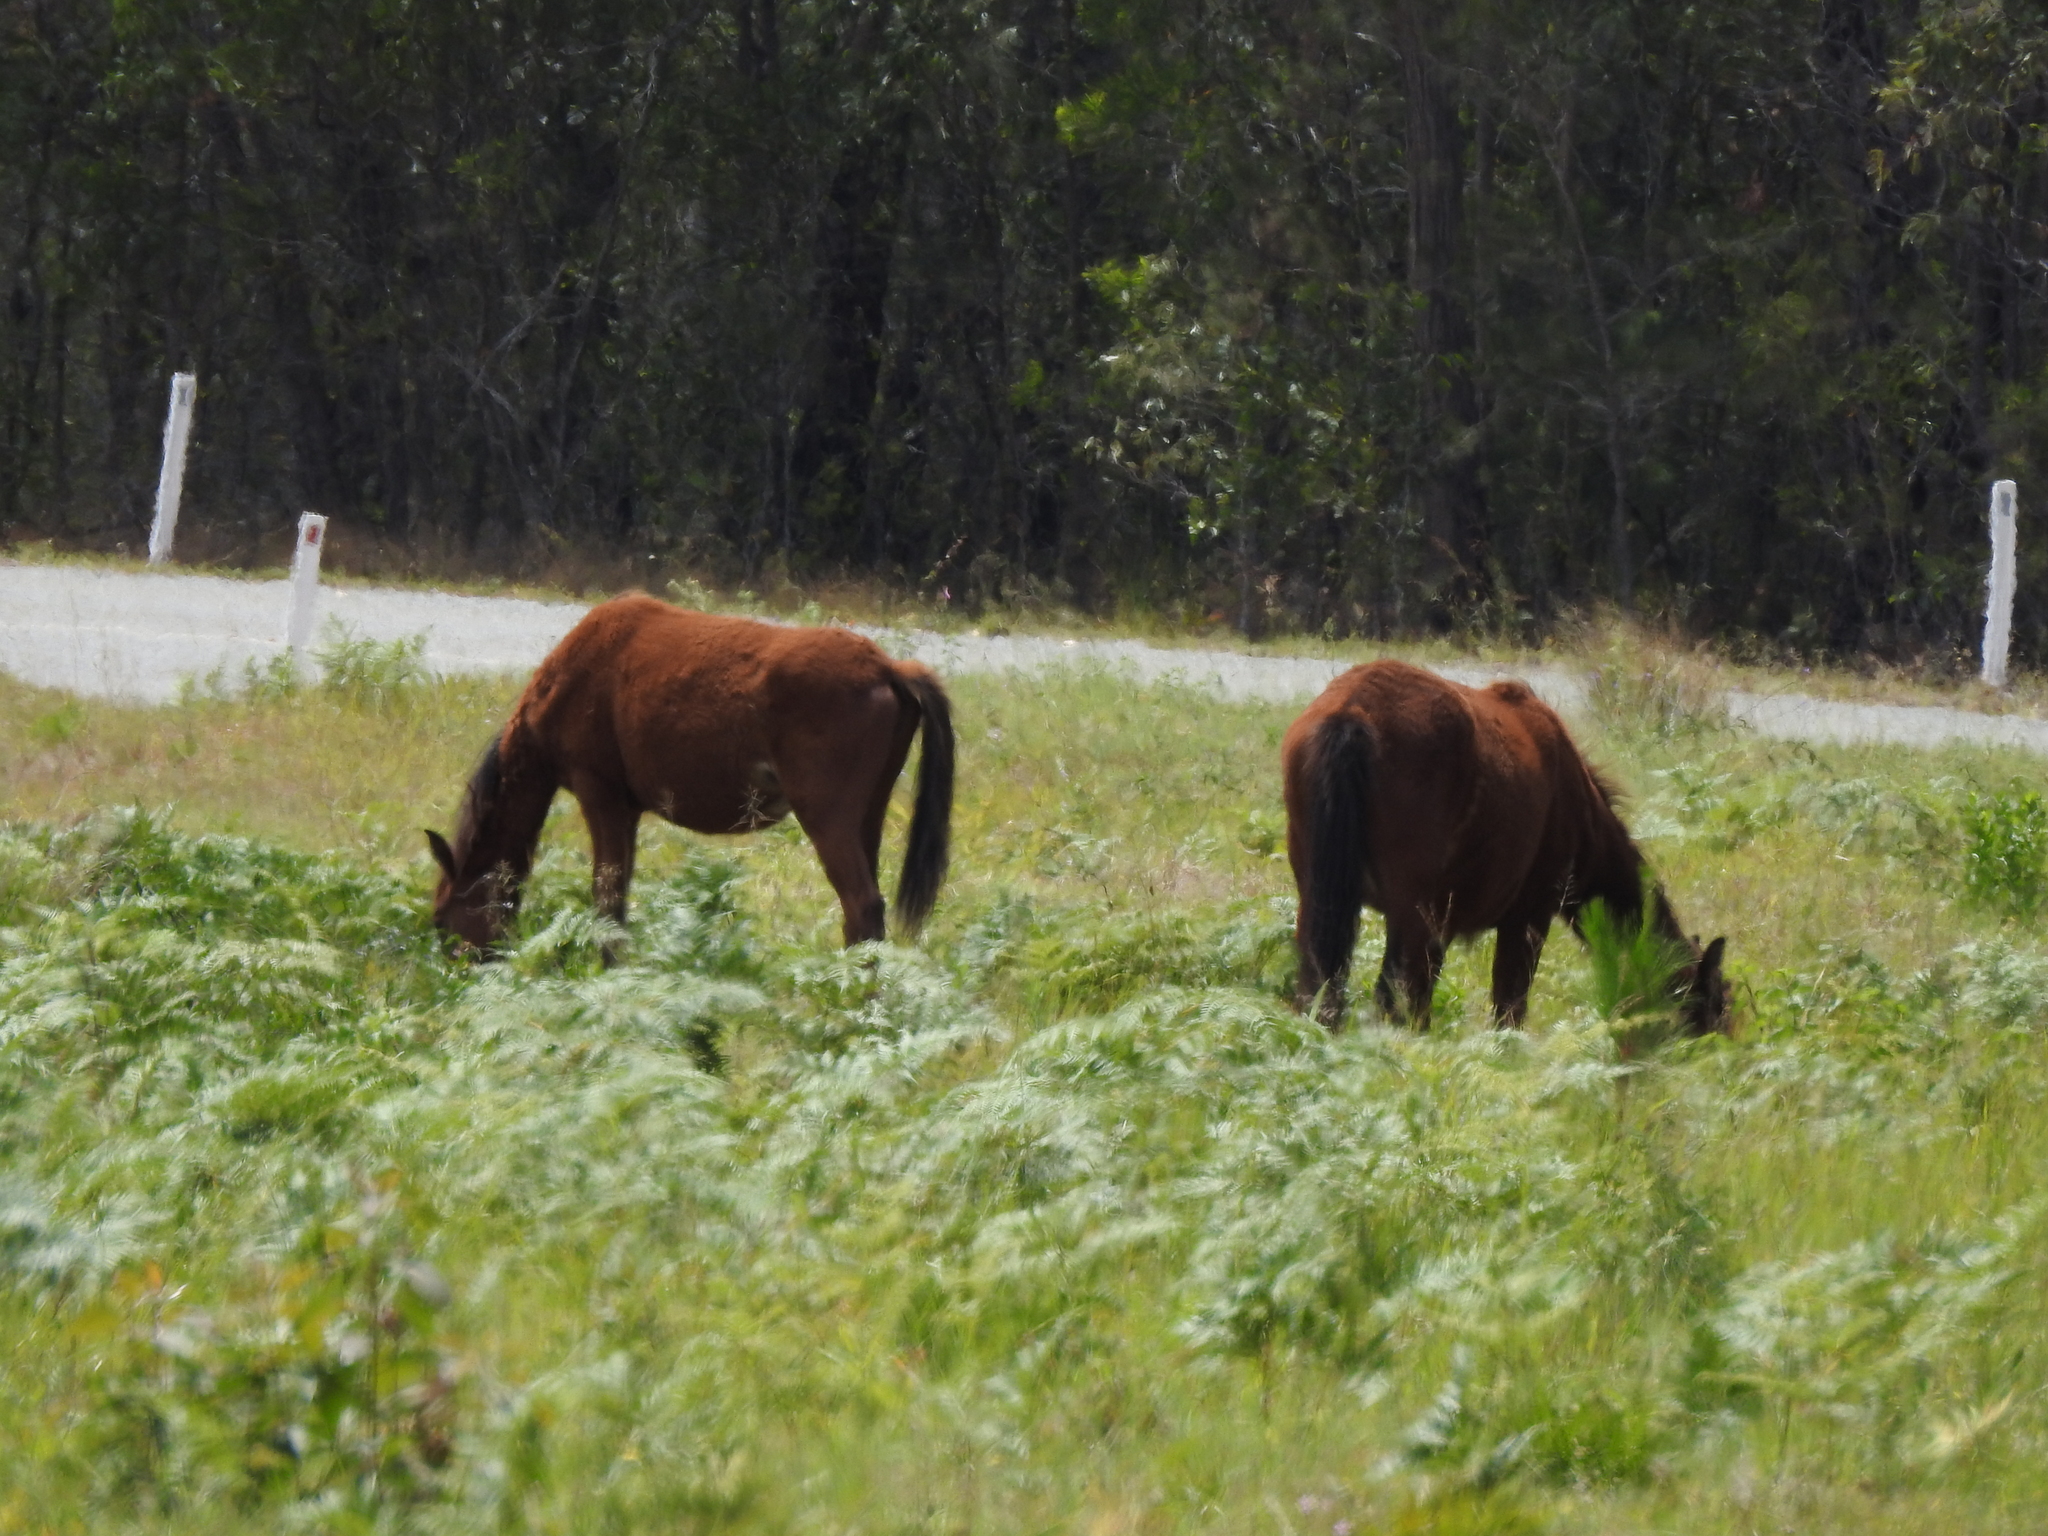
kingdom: Animalia
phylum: Chordata
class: Mammalia
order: Perissodactyla
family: Equidae
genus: Equus
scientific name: Equus caballus
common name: Horse
